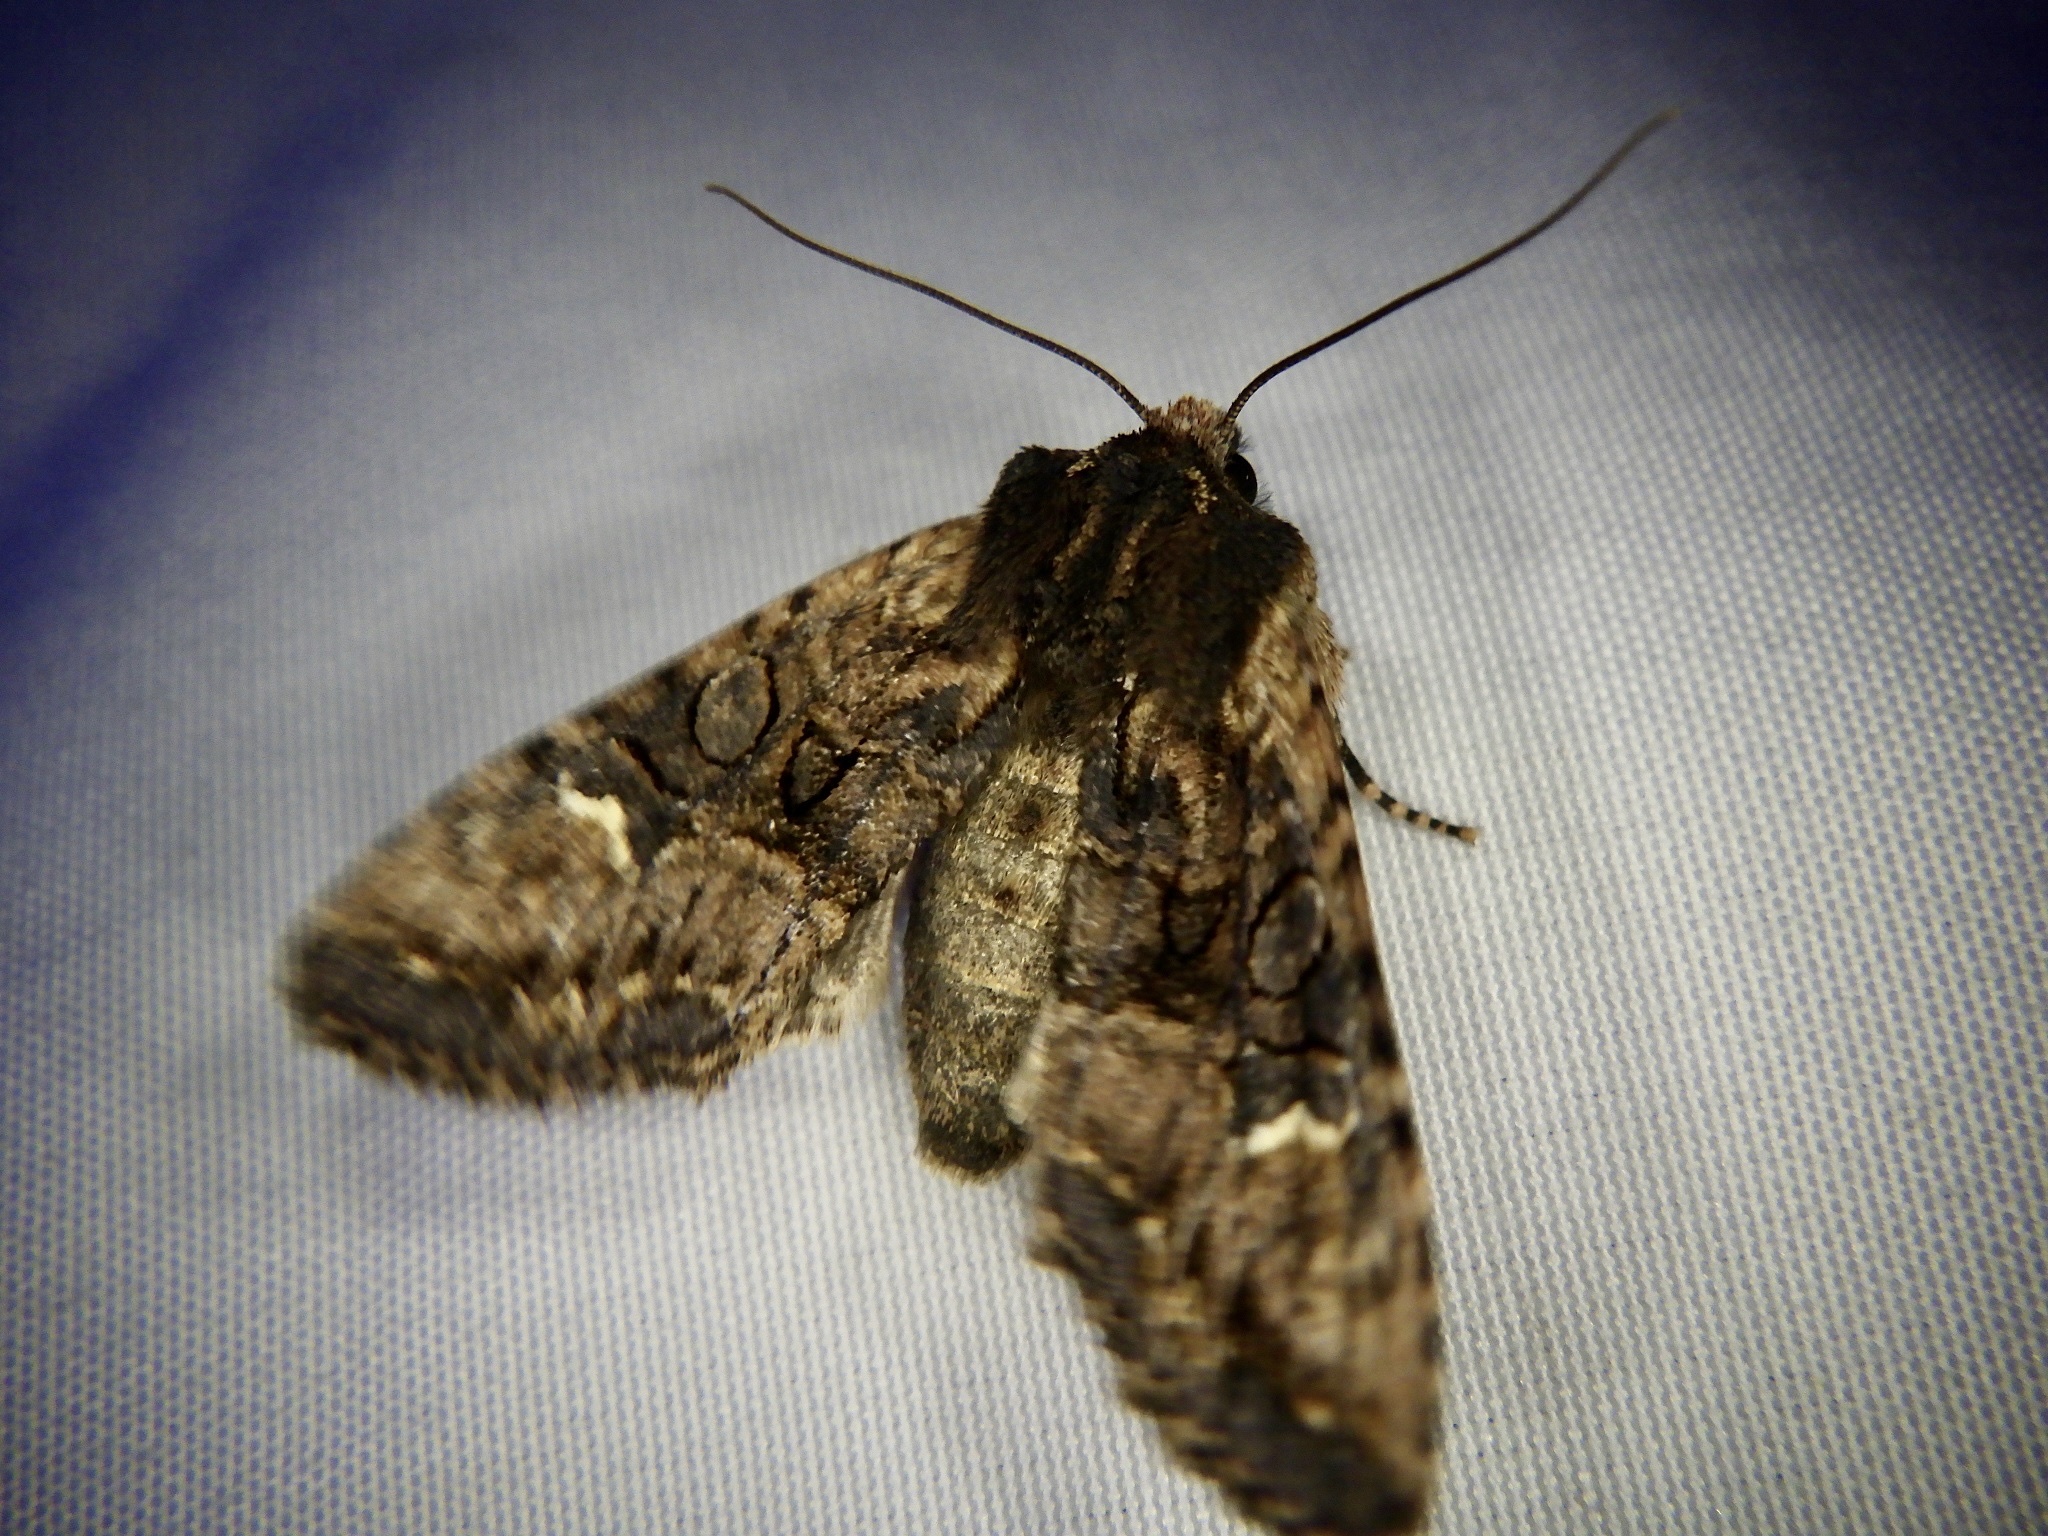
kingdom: Animalia
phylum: Arthropoda
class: Insecta
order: Lepidoptera
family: Noctuidae
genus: Nyctycia
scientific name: Nyctycia strigidisca
